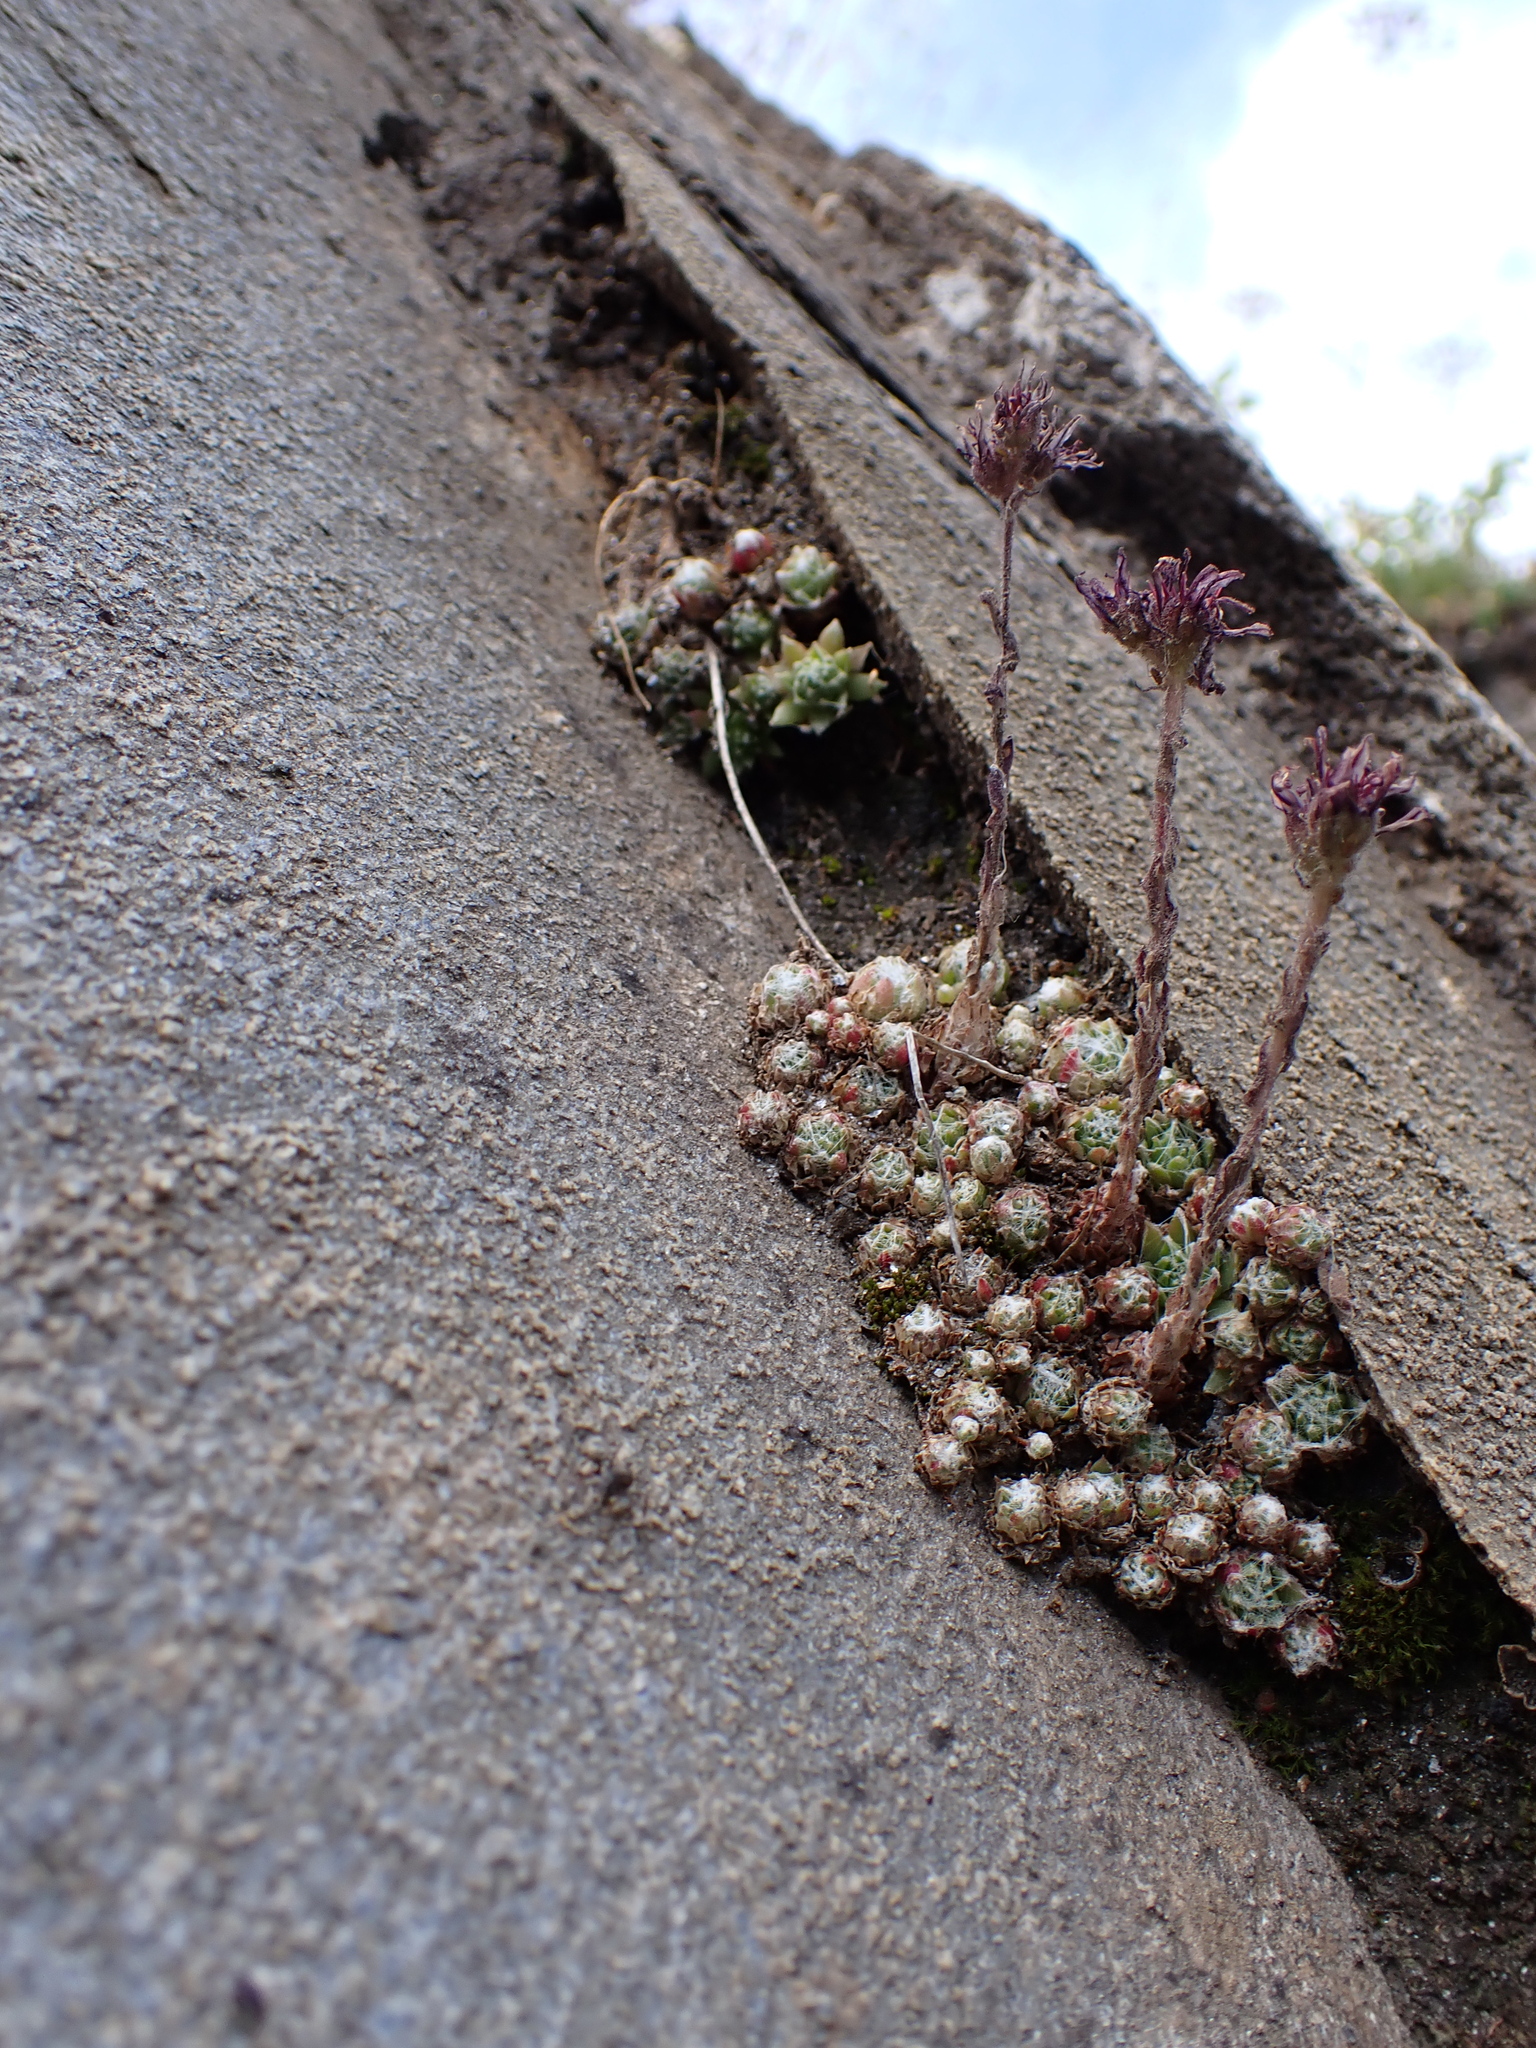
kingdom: Plantae
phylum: Tracheophyta
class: Magnoliopsida
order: Saxifragales
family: Crassulaceae
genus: Sempervivum
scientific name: Sempervivum arachnoideum
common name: Cobweb house-leek
